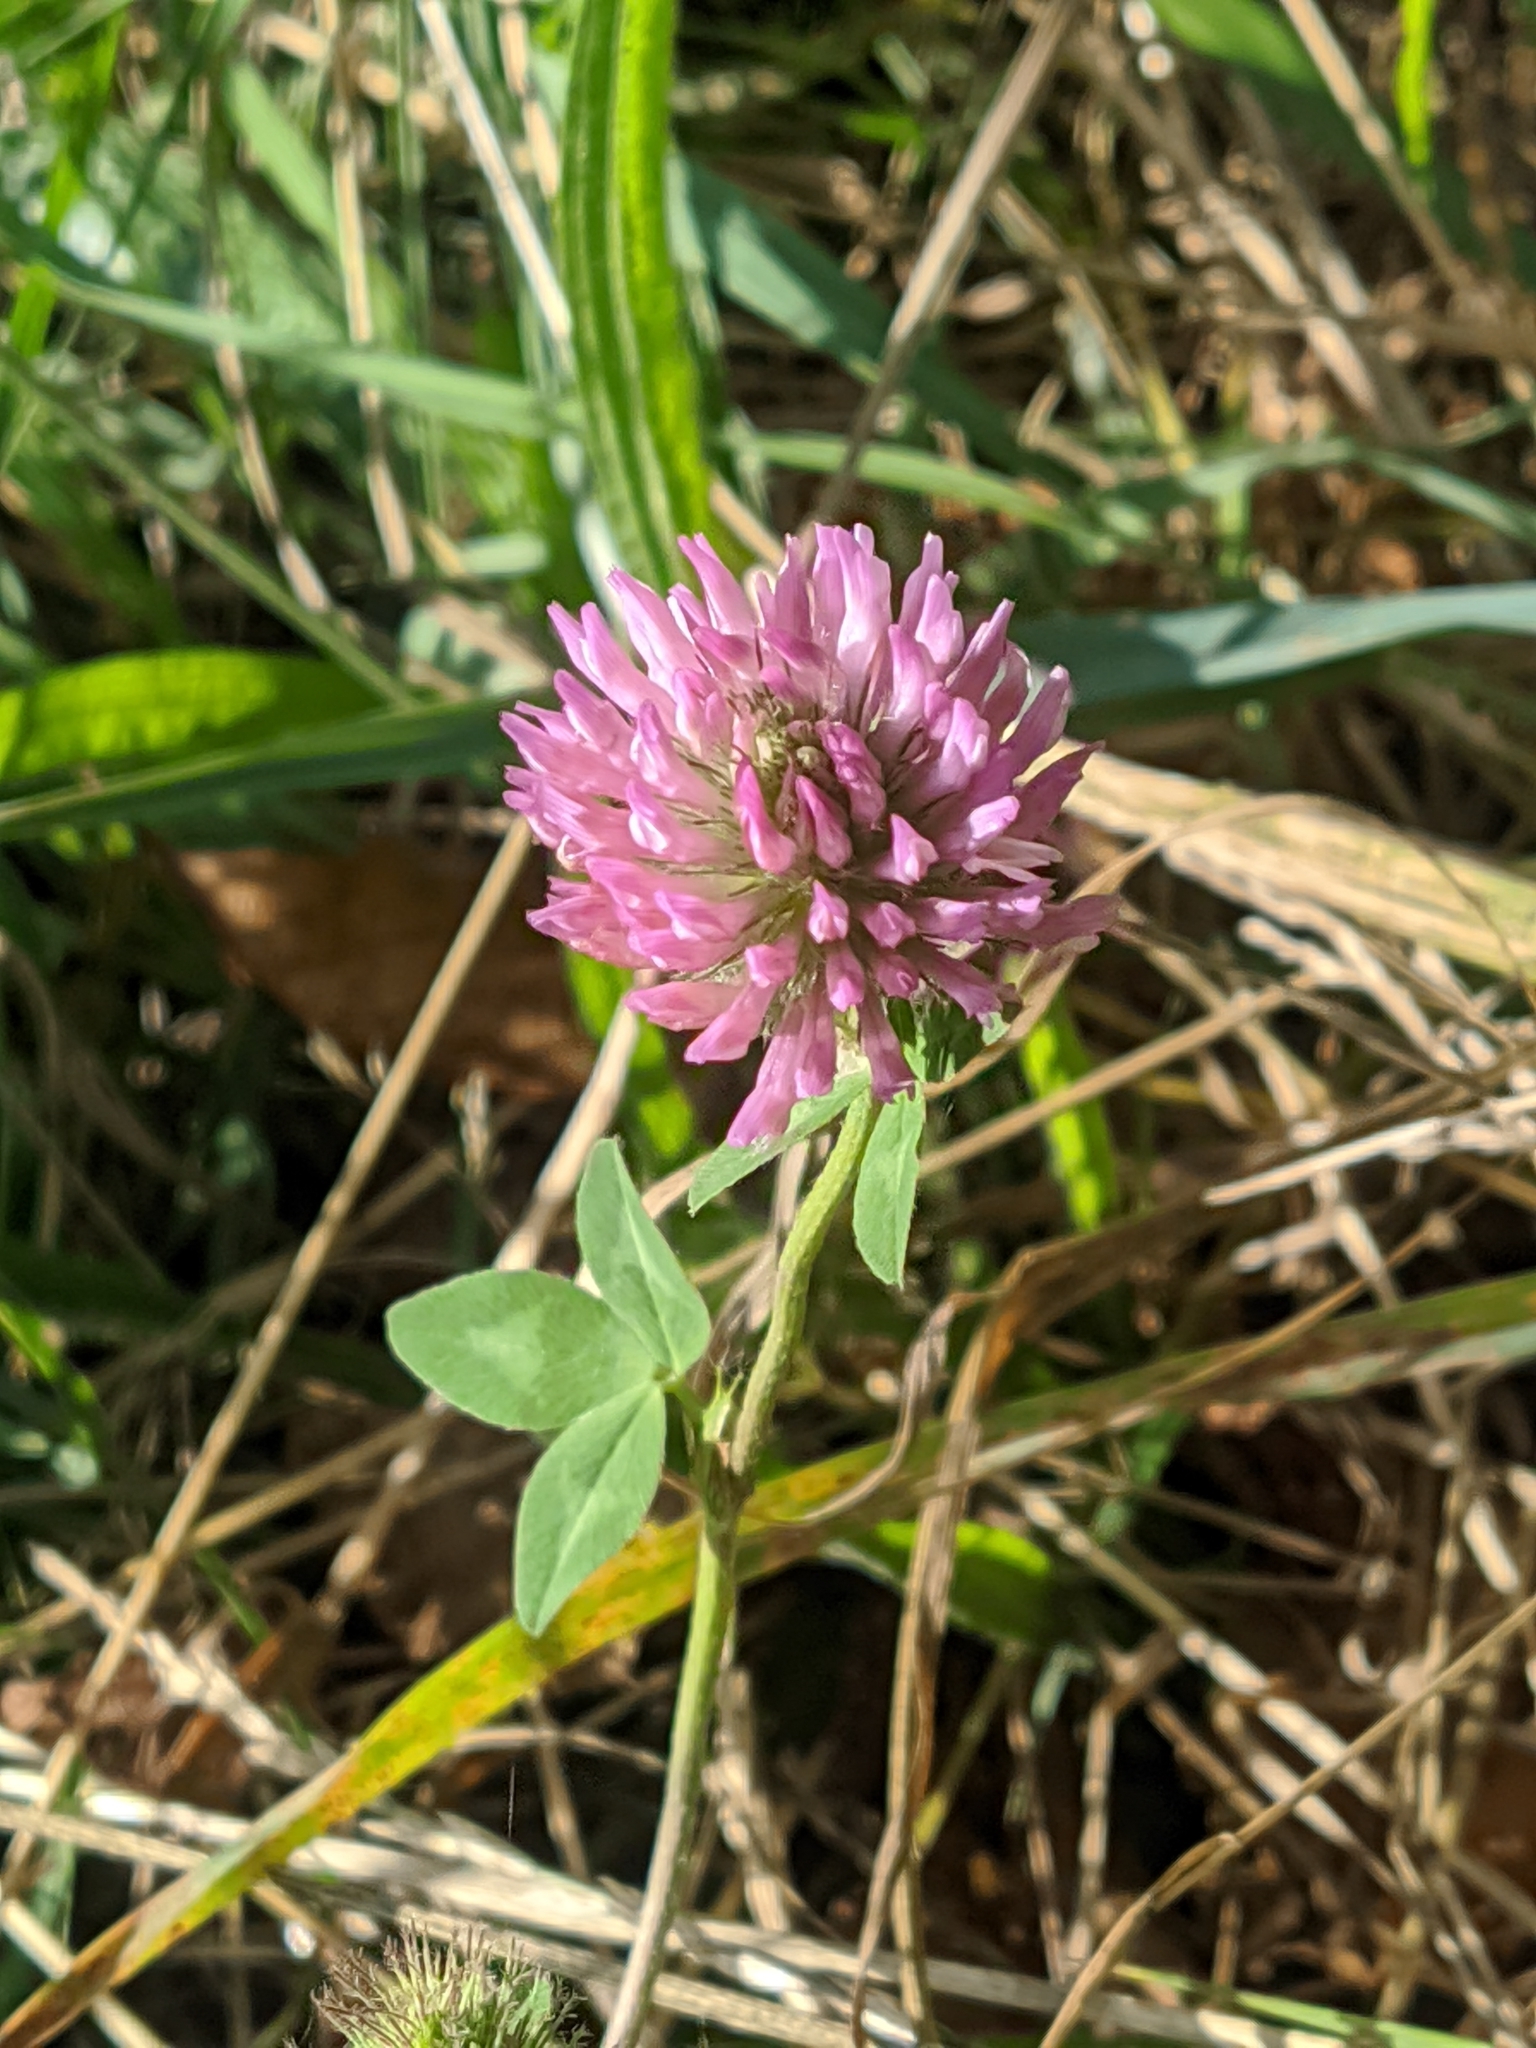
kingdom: Plantae
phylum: Tracheophyta
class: Magnoliopsida
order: Fabales
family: Fabaceae
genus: Trifolium
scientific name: Trifolium pratense
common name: Red clover
